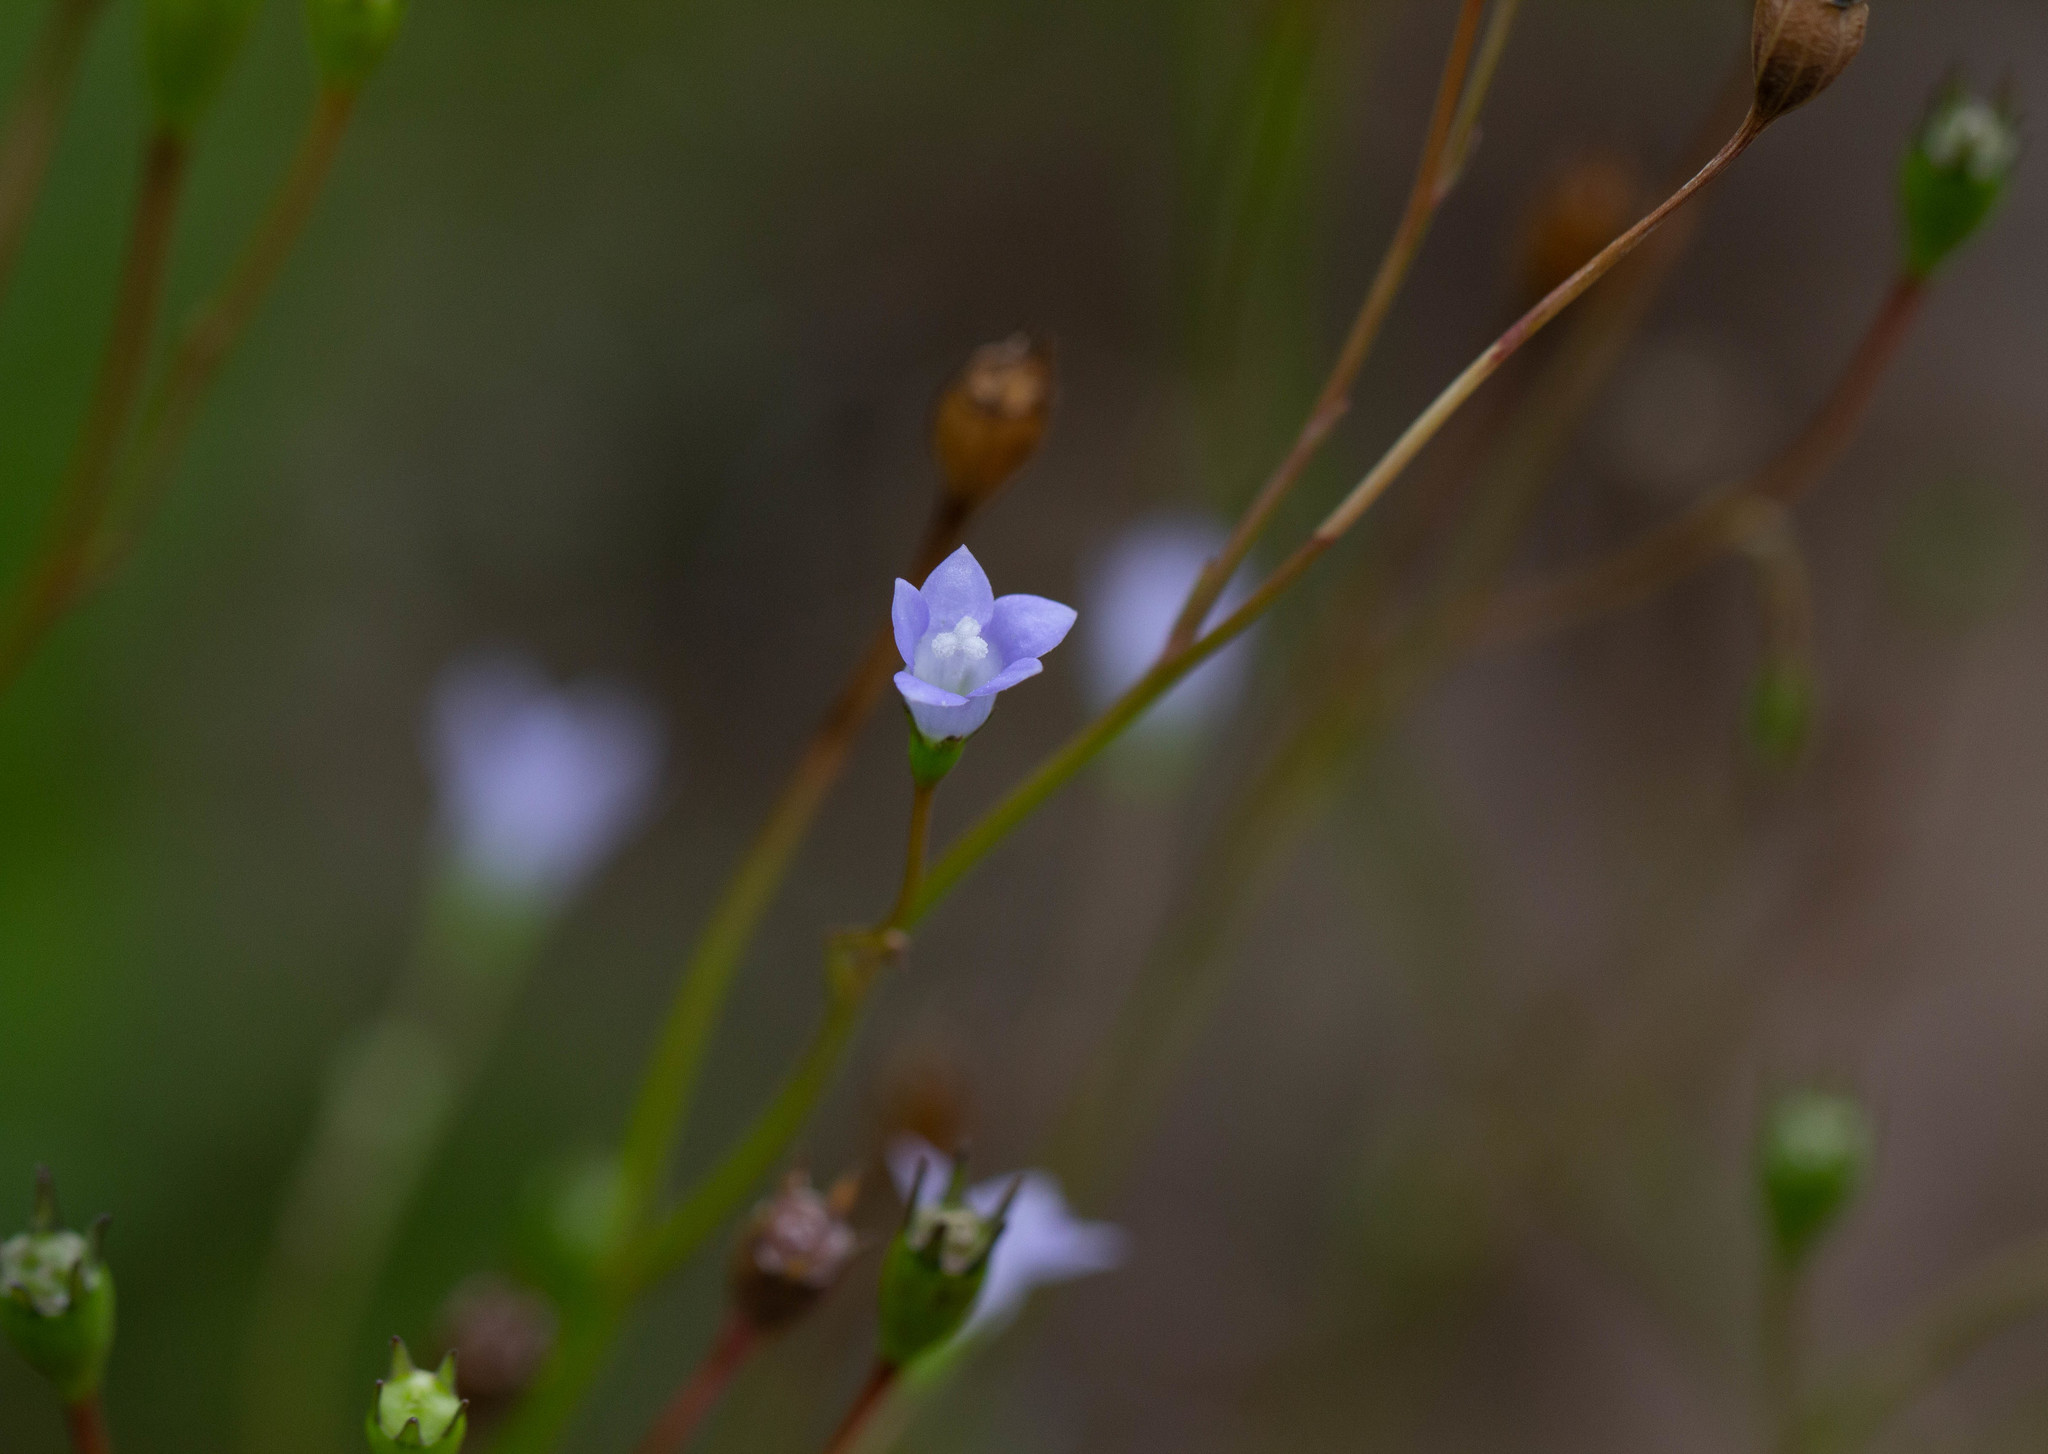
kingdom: Plantae
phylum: Tracheophyta
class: Magnoliopsida
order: Asterales
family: Campanulaceae
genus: Wahlenbergia
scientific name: Wahlenbergia marginata
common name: Southern rockbell
